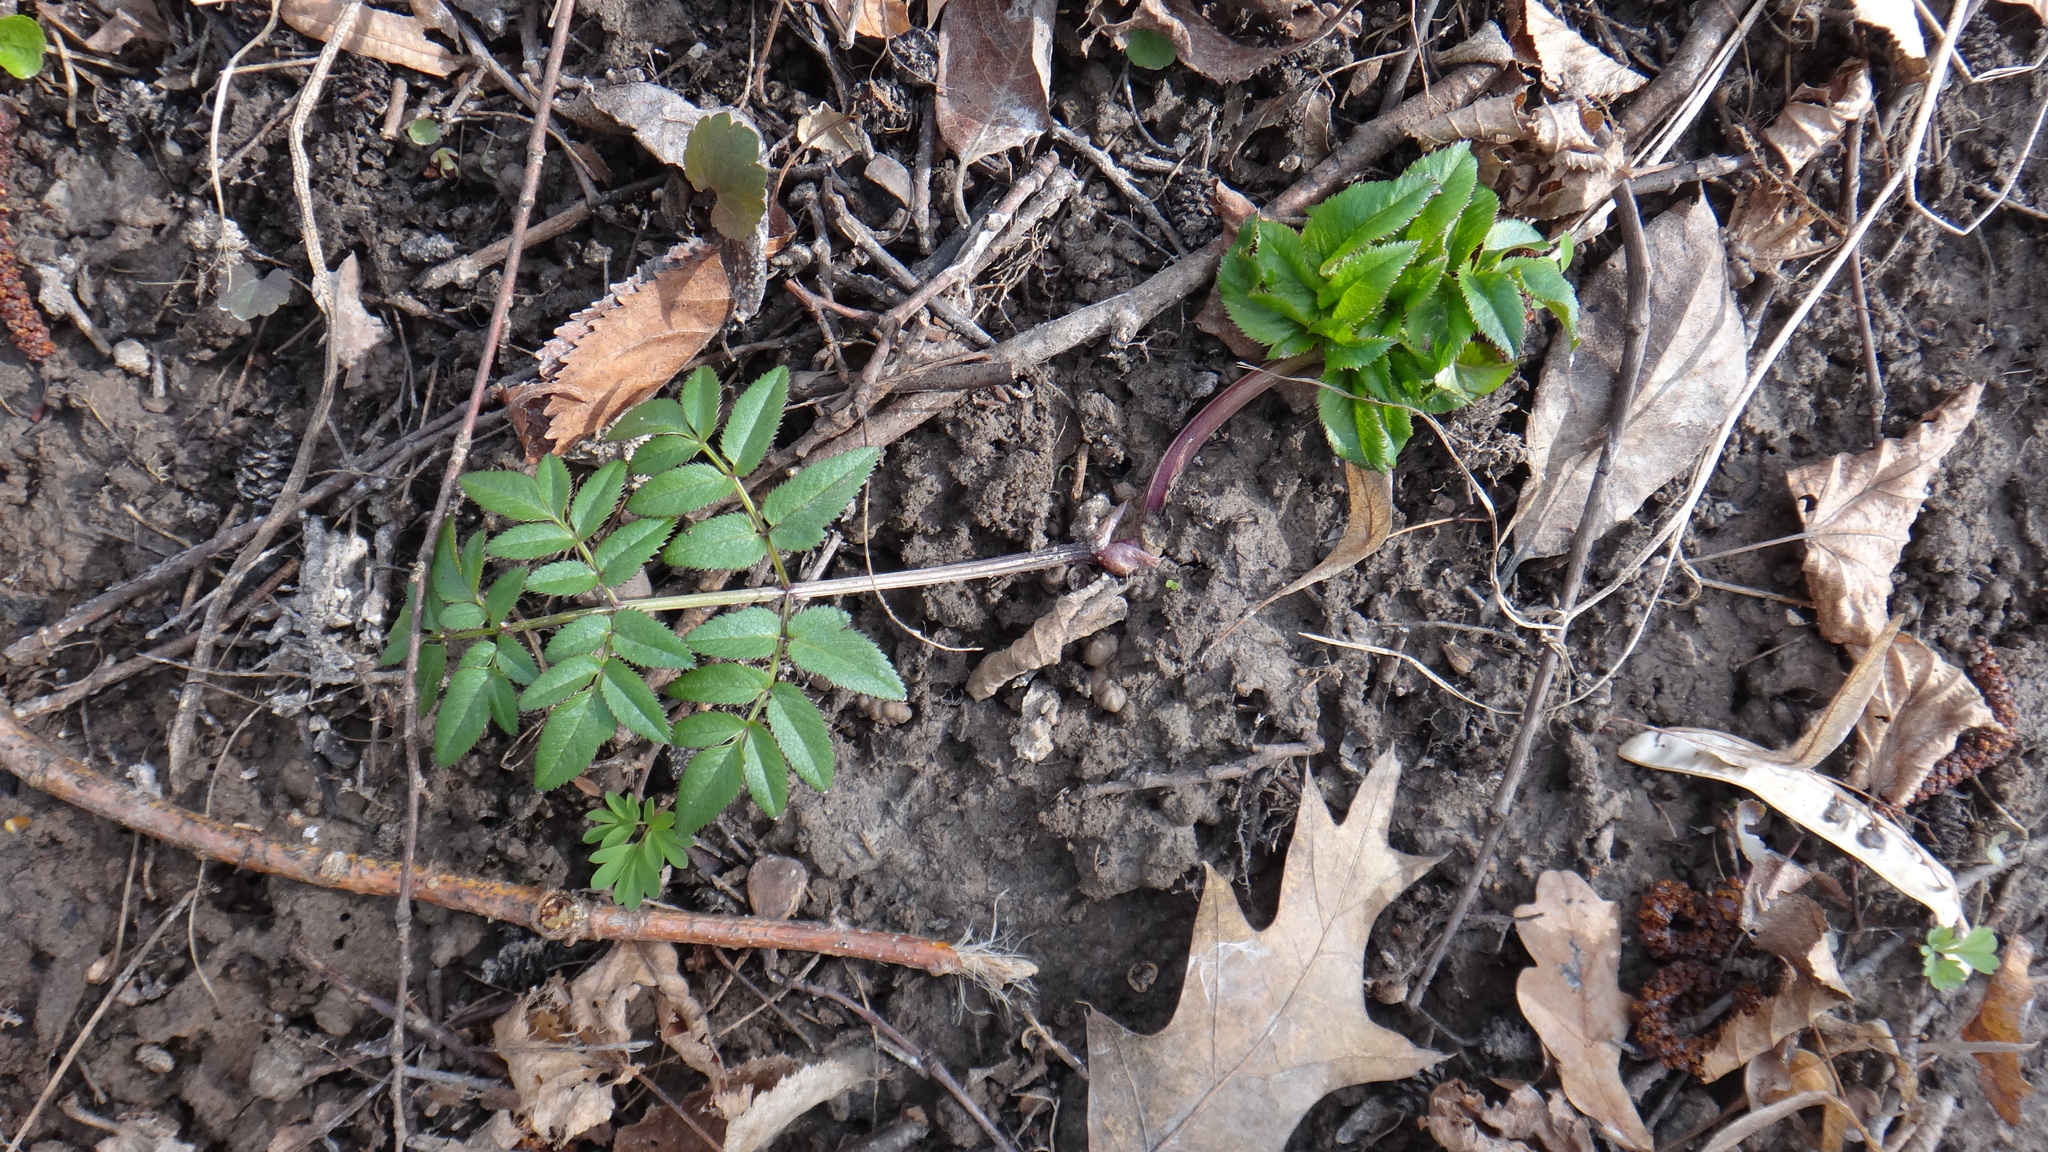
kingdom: Plantae
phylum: Tracheophyta
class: Magnoliopsida
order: Apiales
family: Apiaceae
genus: Angelica
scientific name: Angelica sylvestris
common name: Wild angelica
